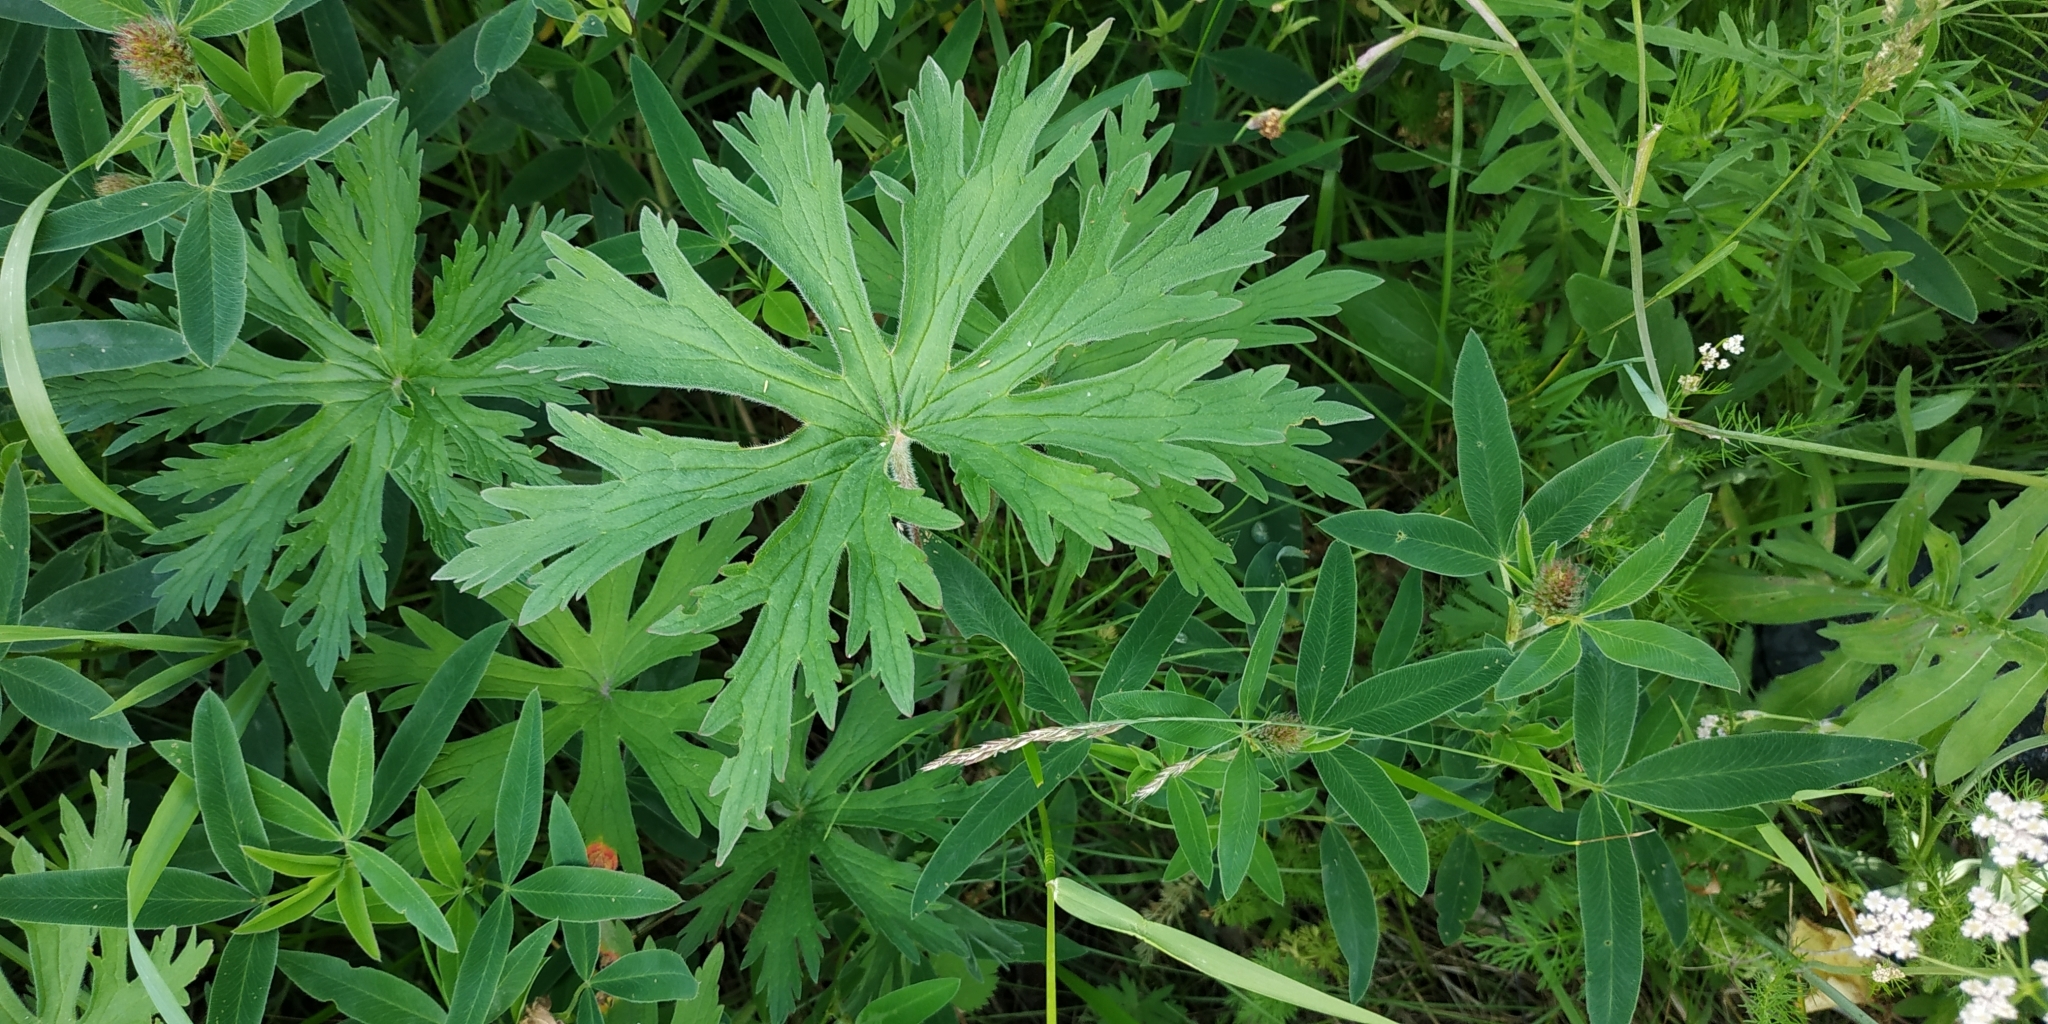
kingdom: Plantae
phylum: Tracheophyta
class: Magnoliopsida
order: Geraniales
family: Geraniaceae
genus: Geranium
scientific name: Geranium pratense
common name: Meadow crane's-bill
